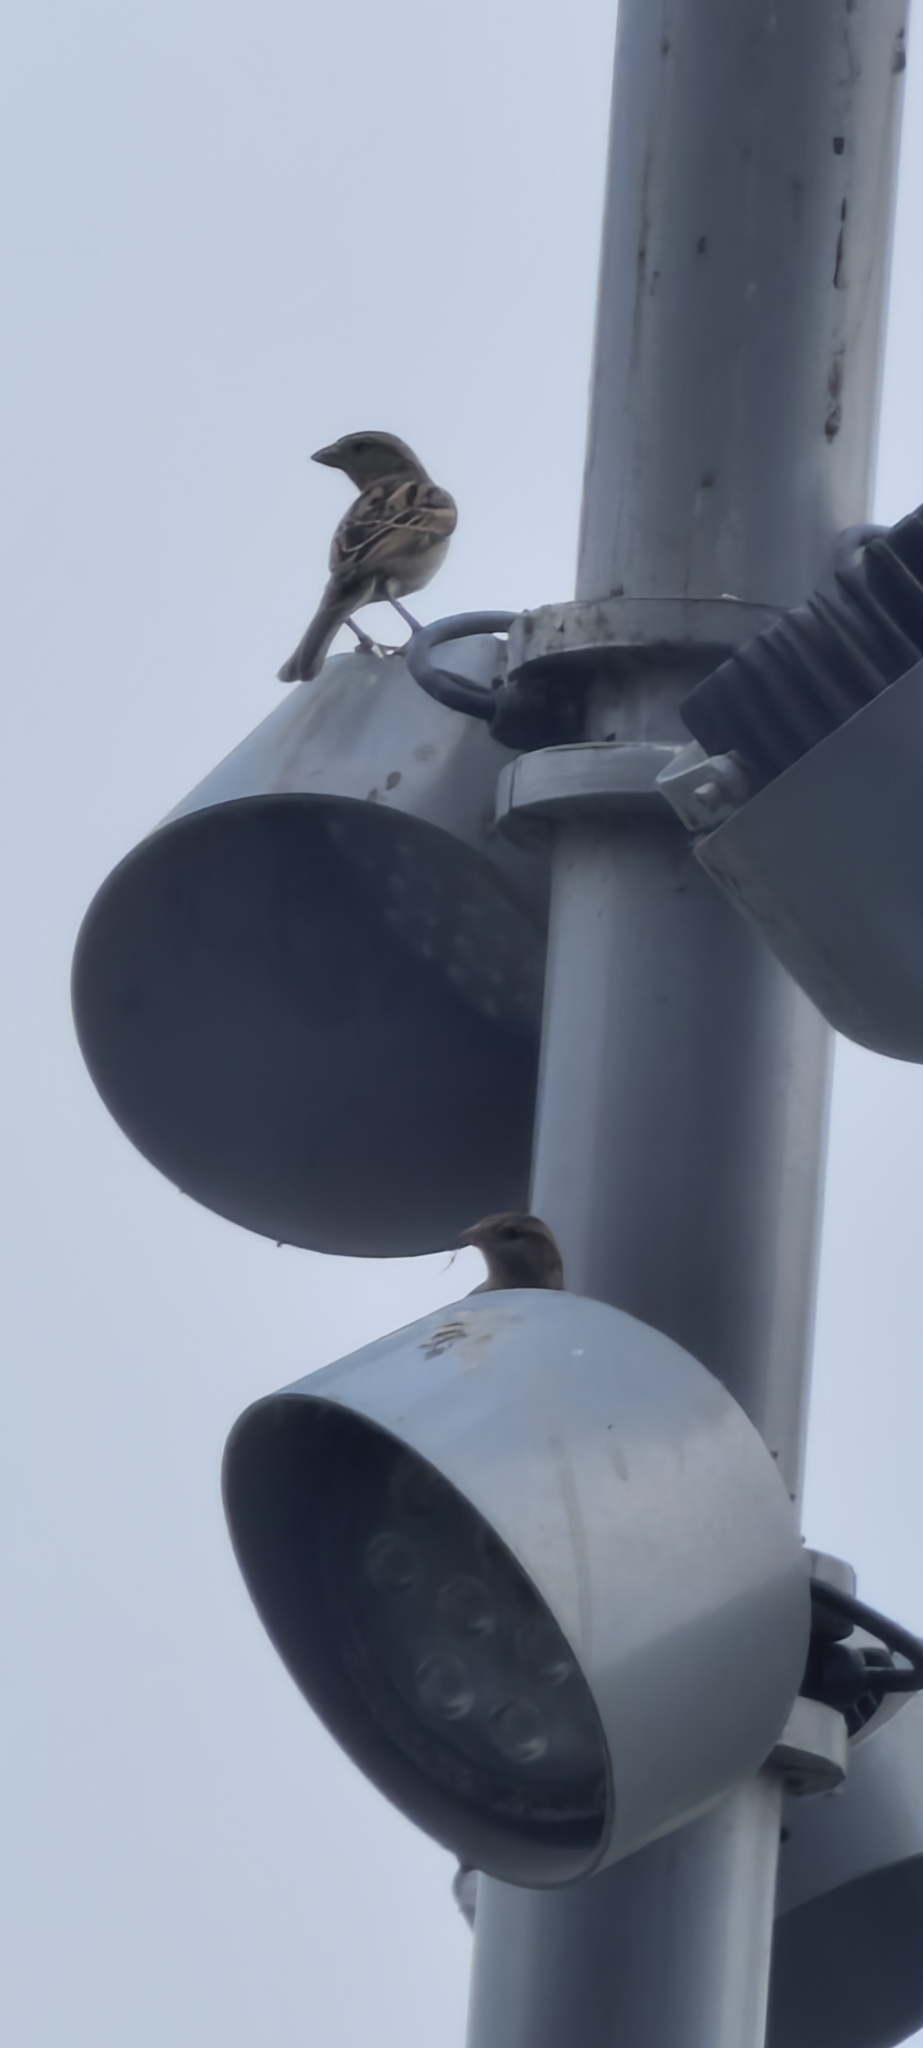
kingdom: Animalia
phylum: Chordata
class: Aves
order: Passeriformes
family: Passeridae
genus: Passer
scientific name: Passer domesticus
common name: House sparrow
